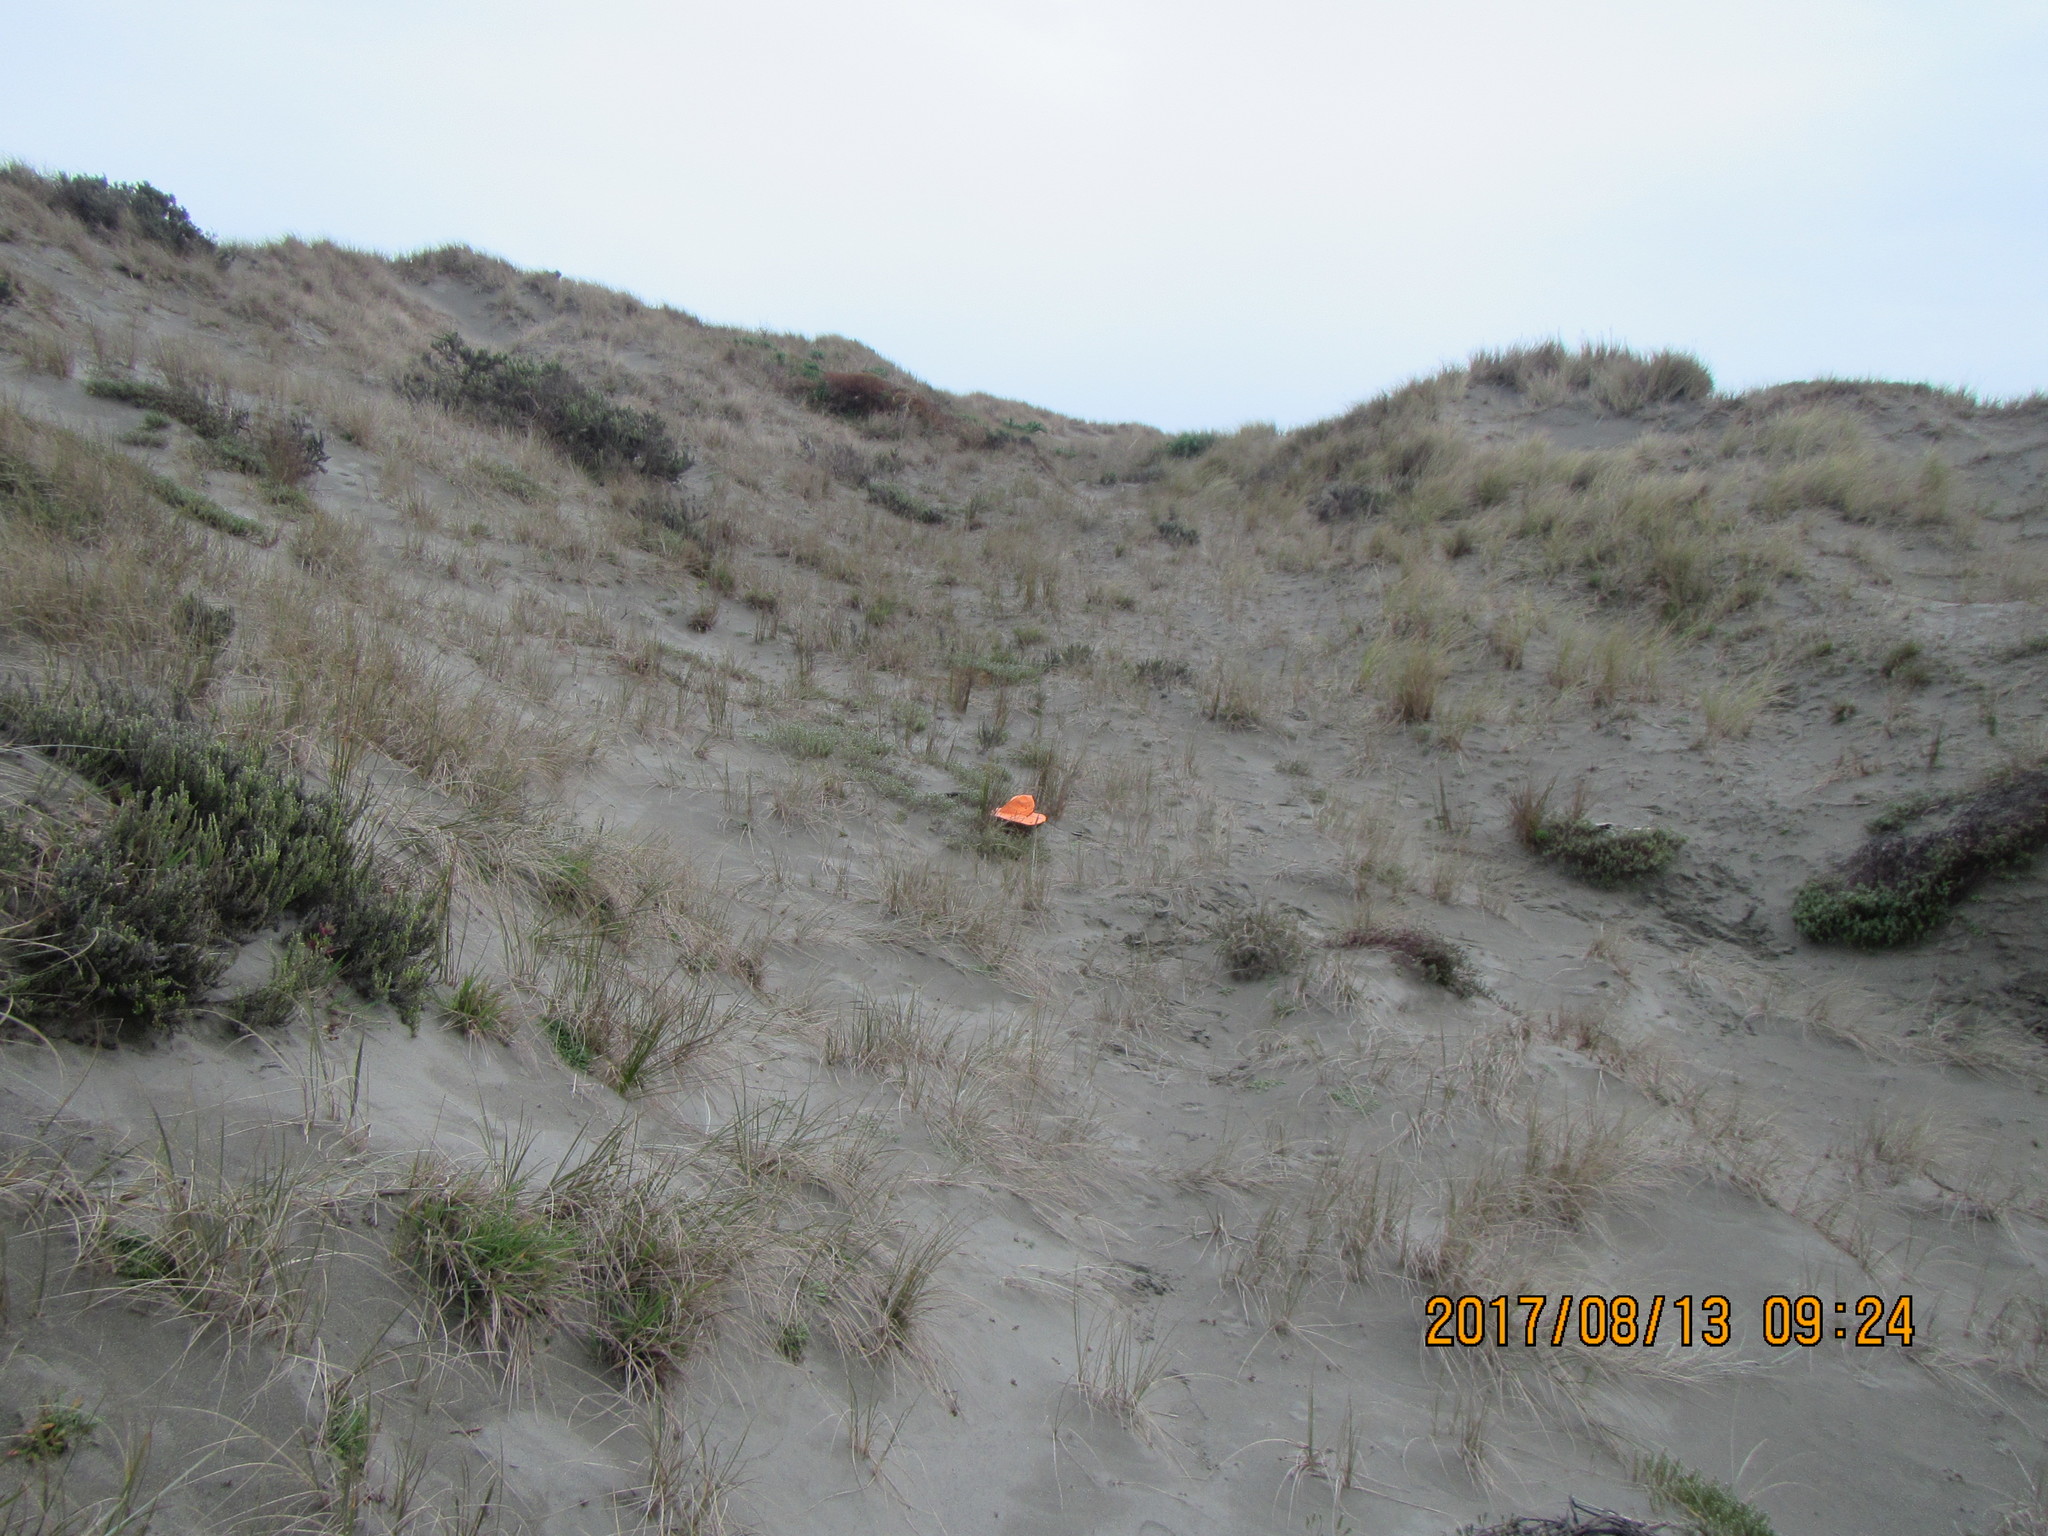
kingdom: Animalia
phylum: Arthropoda
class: Arachnida
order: Araneae
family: Lycosidae
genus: Anoteropsis
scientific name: Anoteropsis litoralis
